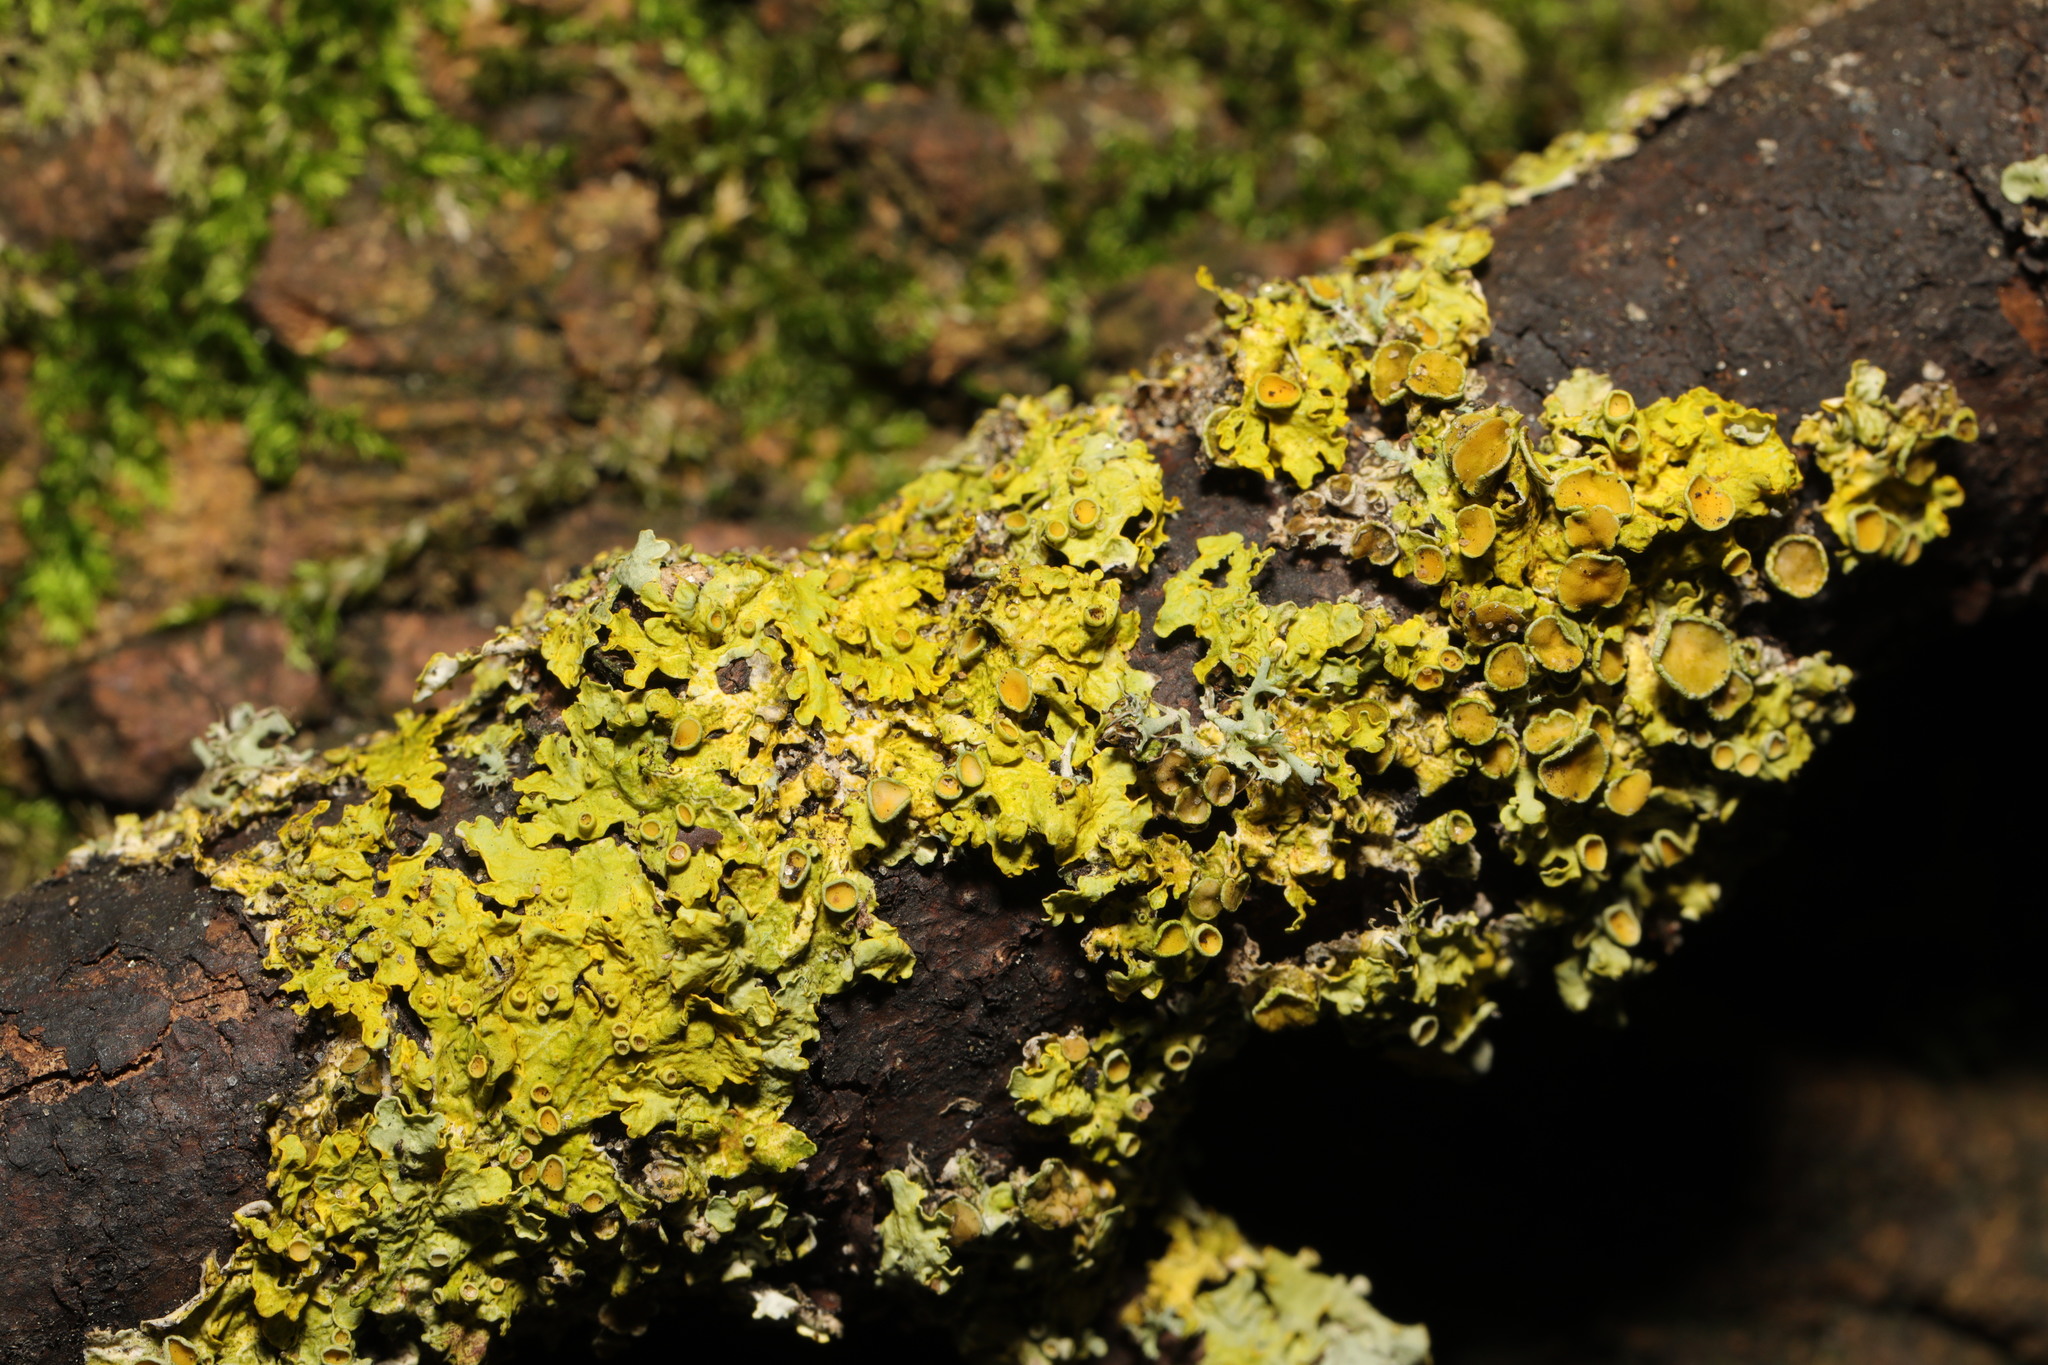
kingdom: Fungi
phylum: Ascomycota
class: Lecanoromycetes
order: Teloschistales
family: Teloschistaceae
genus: Xanthoria
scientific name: Xanthoria parietina
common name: Common orange lichen
